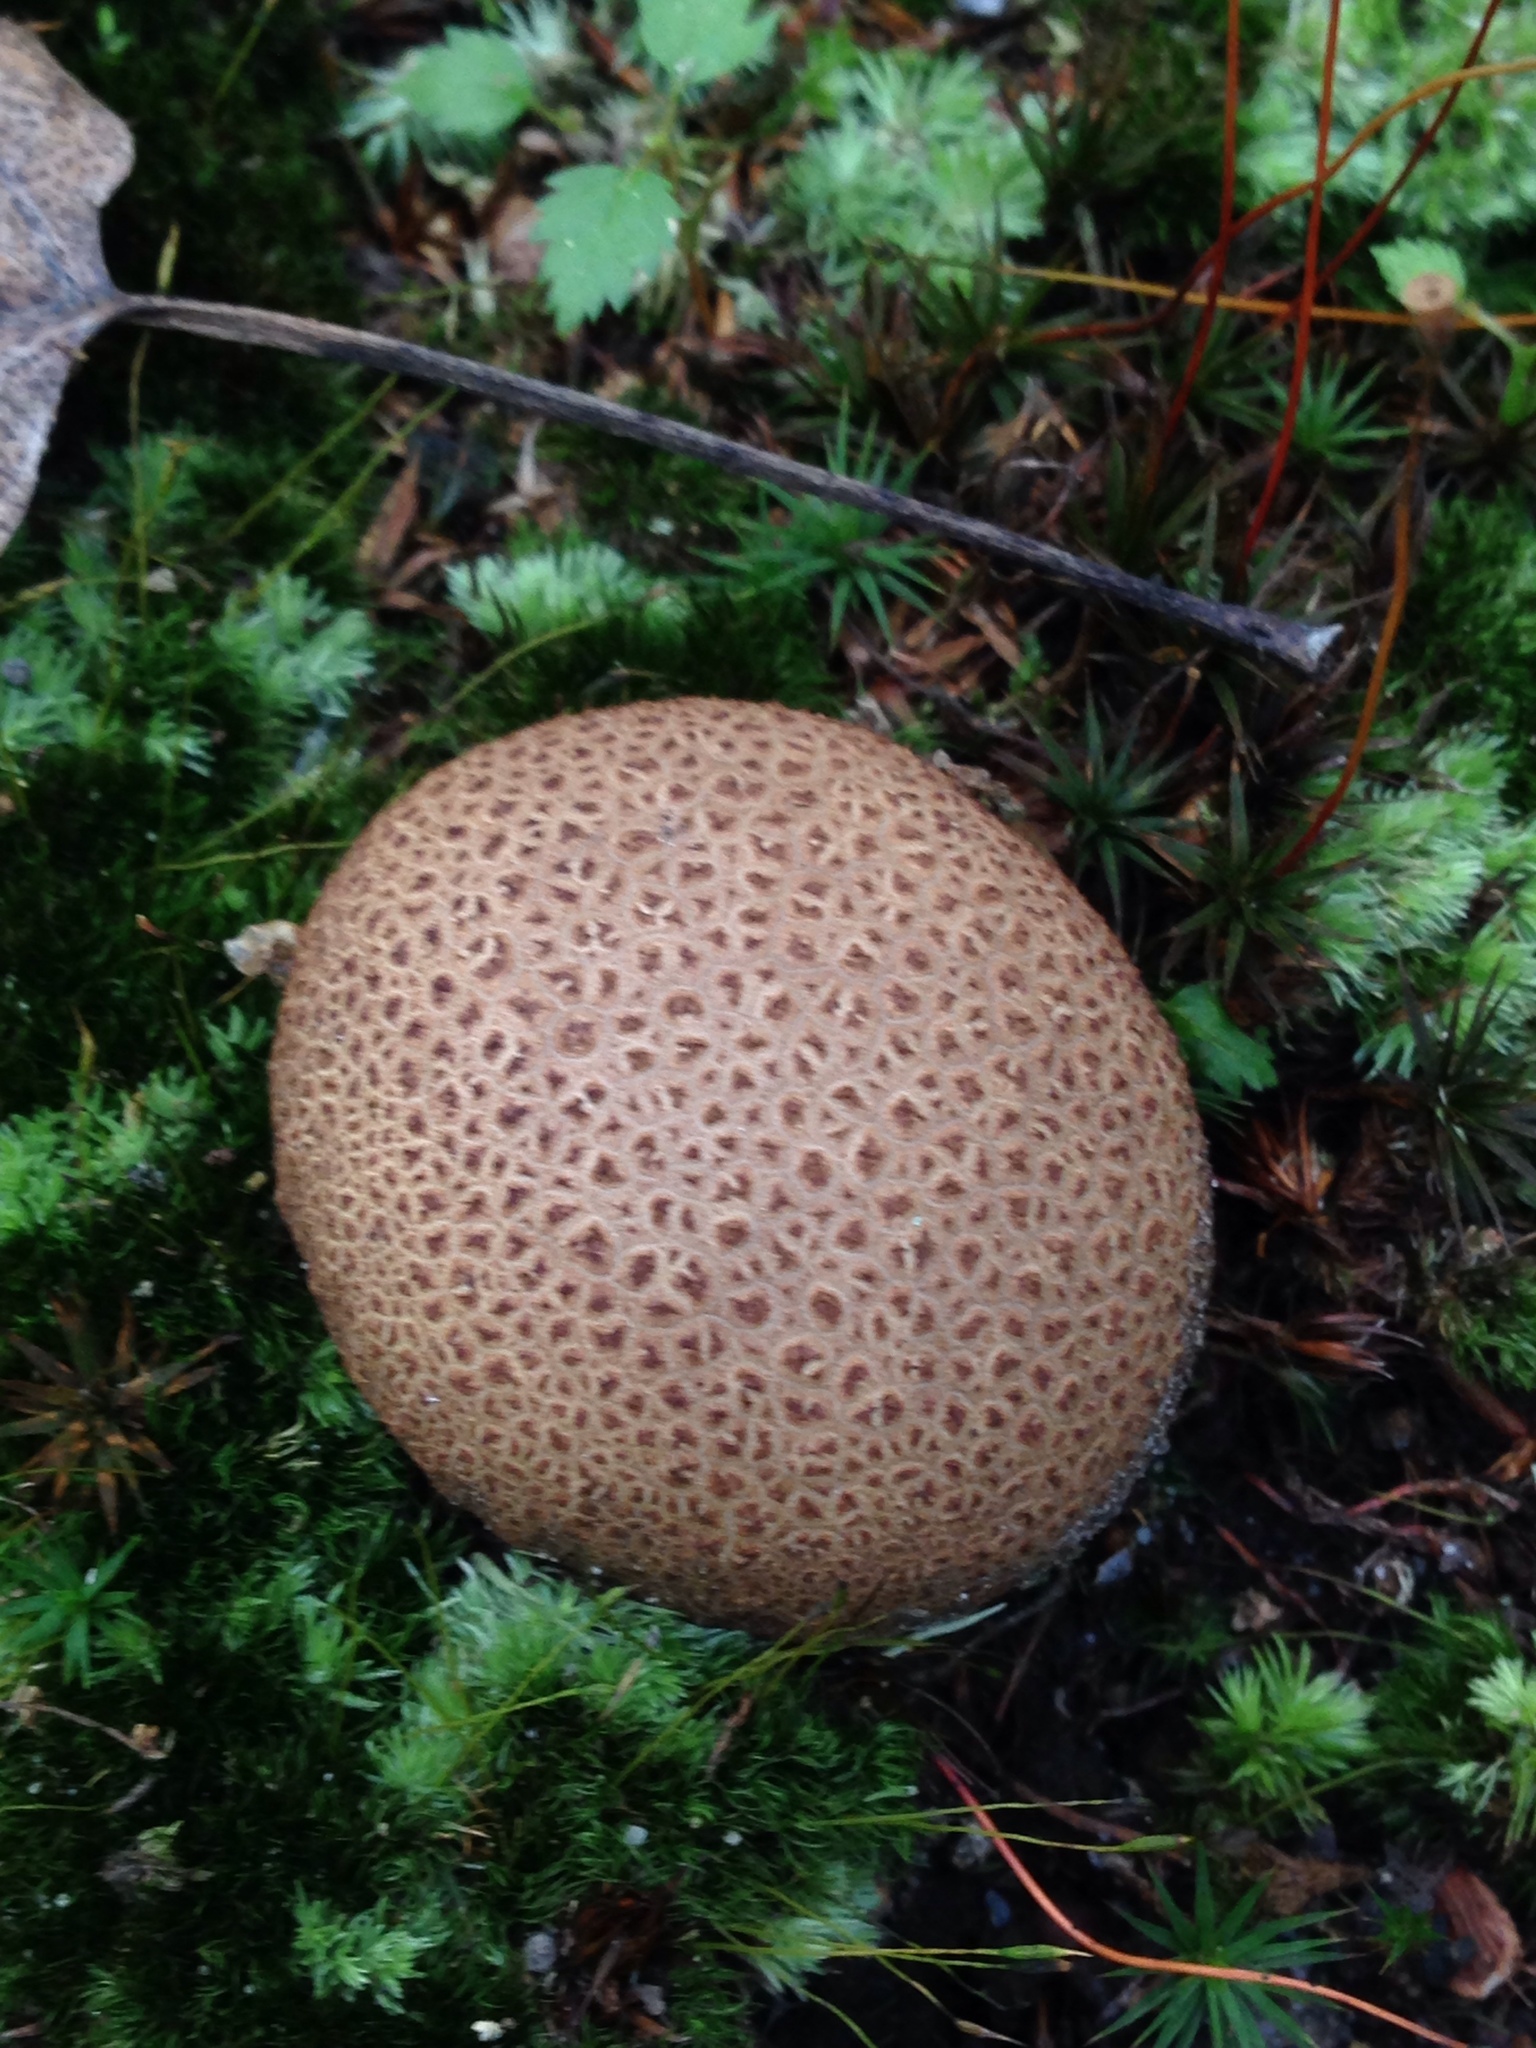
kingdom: Fungi
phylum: Basidiomycota
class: Agaricomycetes
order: Boletales
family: Sclerodermataceae
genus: Scleroderma
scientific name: Scleroderma citrinum
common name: Common earthball
